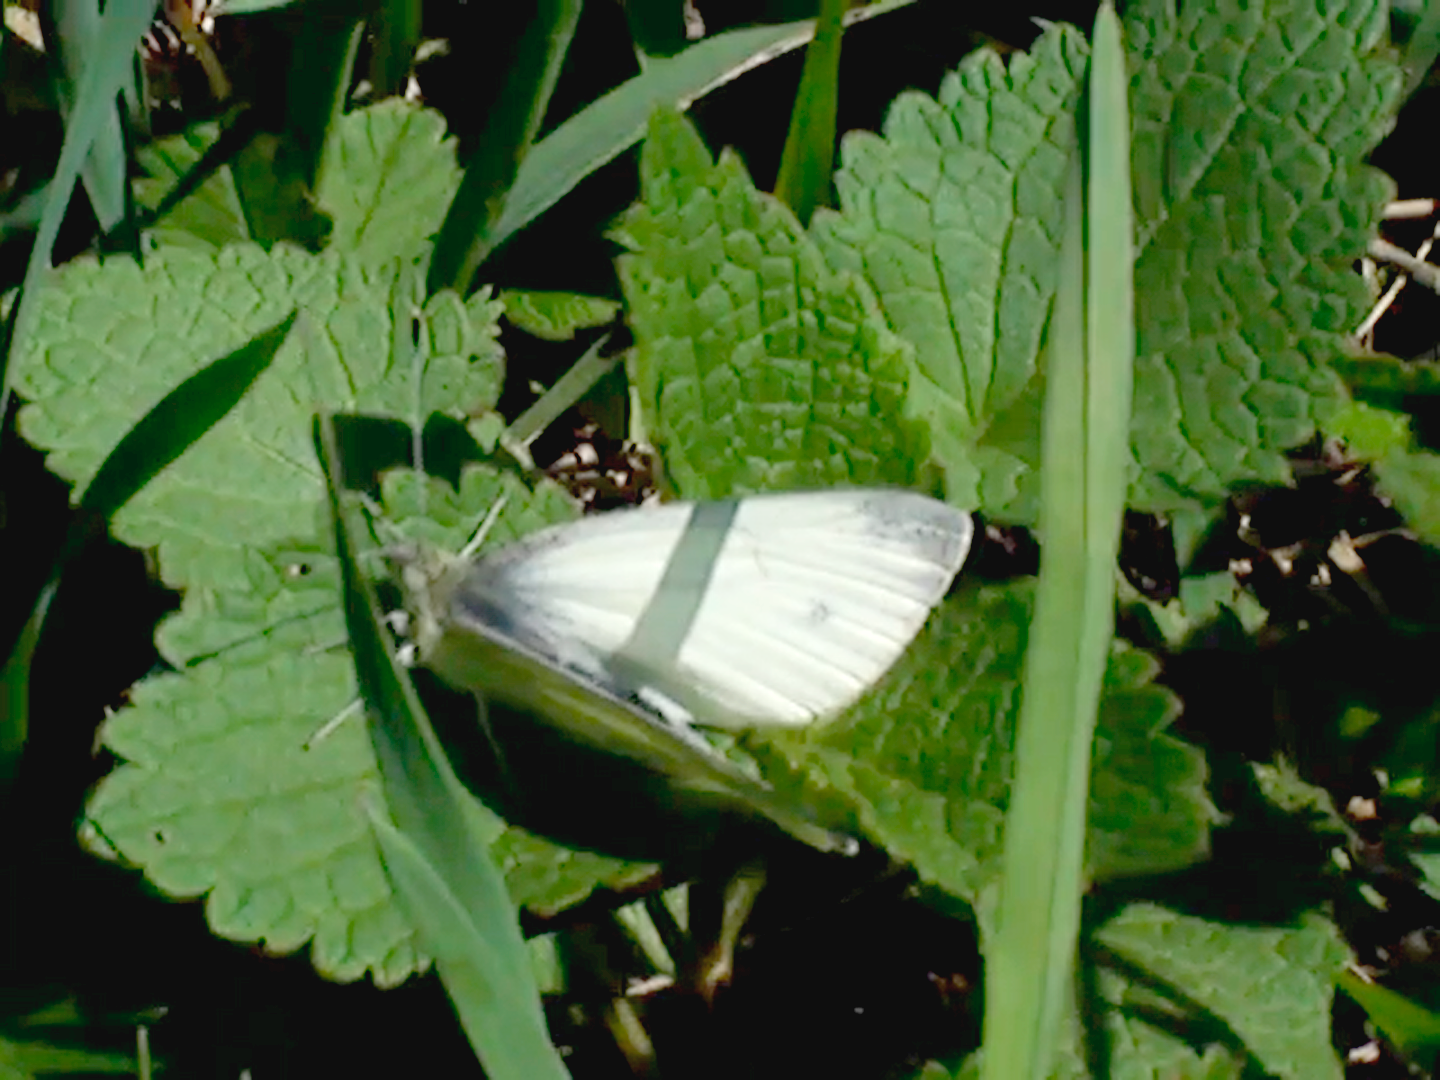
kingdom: Animalia
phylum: Arthropoda
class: Insecta
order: Lepidoptera
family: Pieridae
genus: Pieris
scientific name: Pieris napi
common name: Green-veined white
